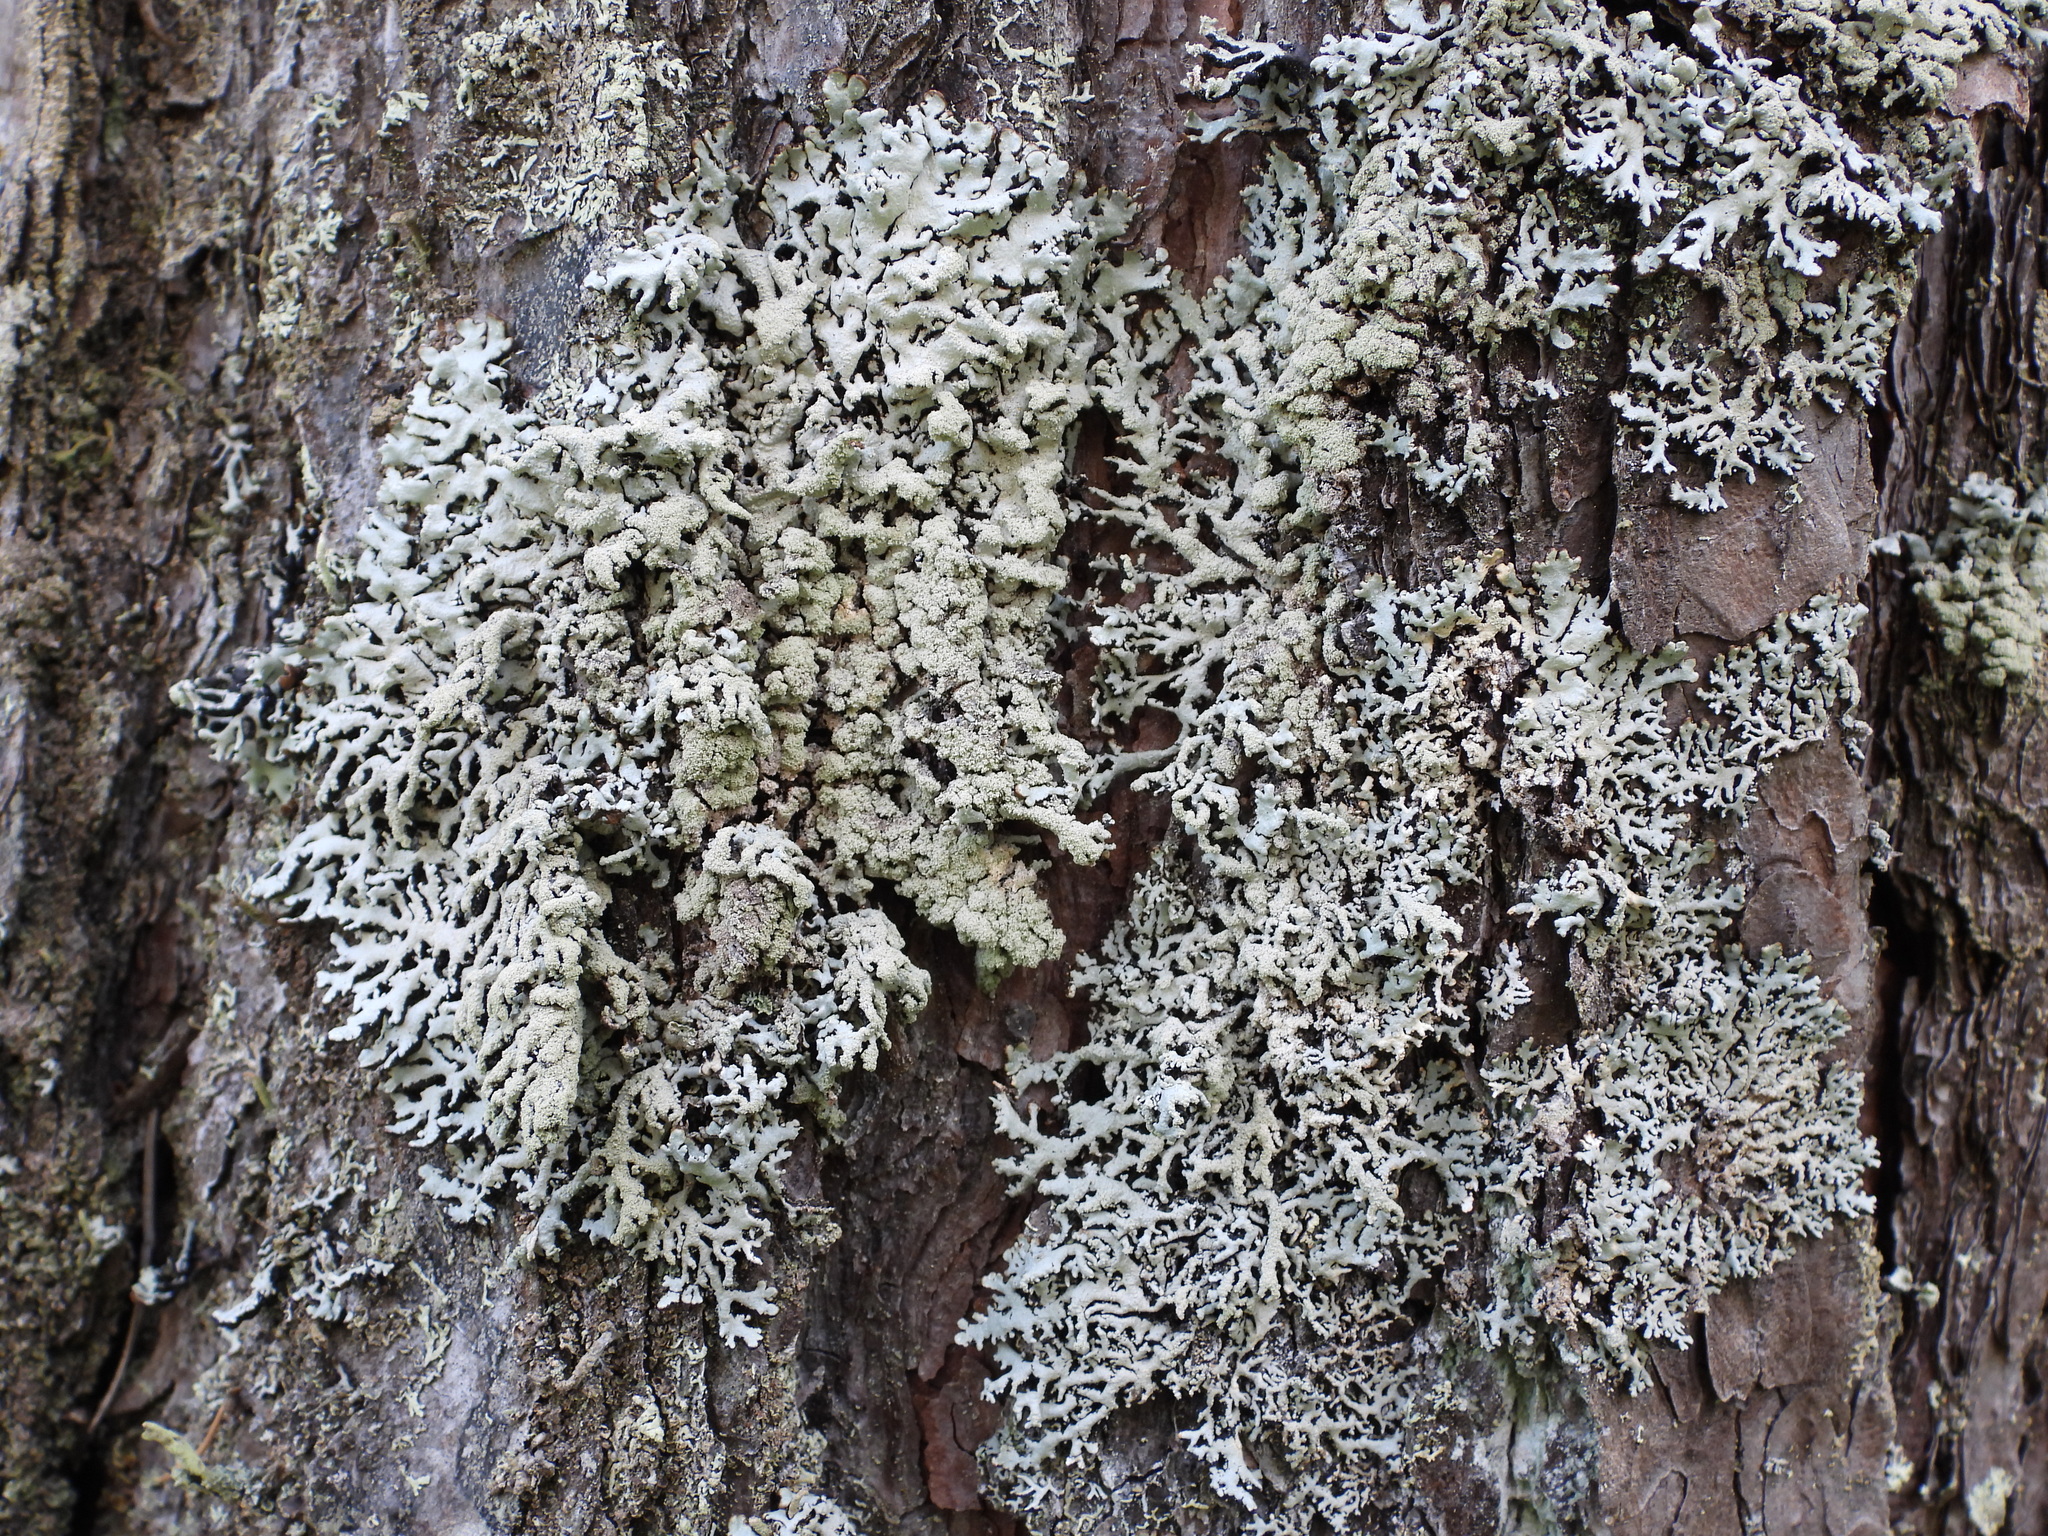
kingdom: Fungi
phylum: Ascomycota
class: Lecanoromycetes
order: Lecanorales
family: Parmeliaceae
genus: Hypogymnia
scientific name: Hypogymnia farinacea
